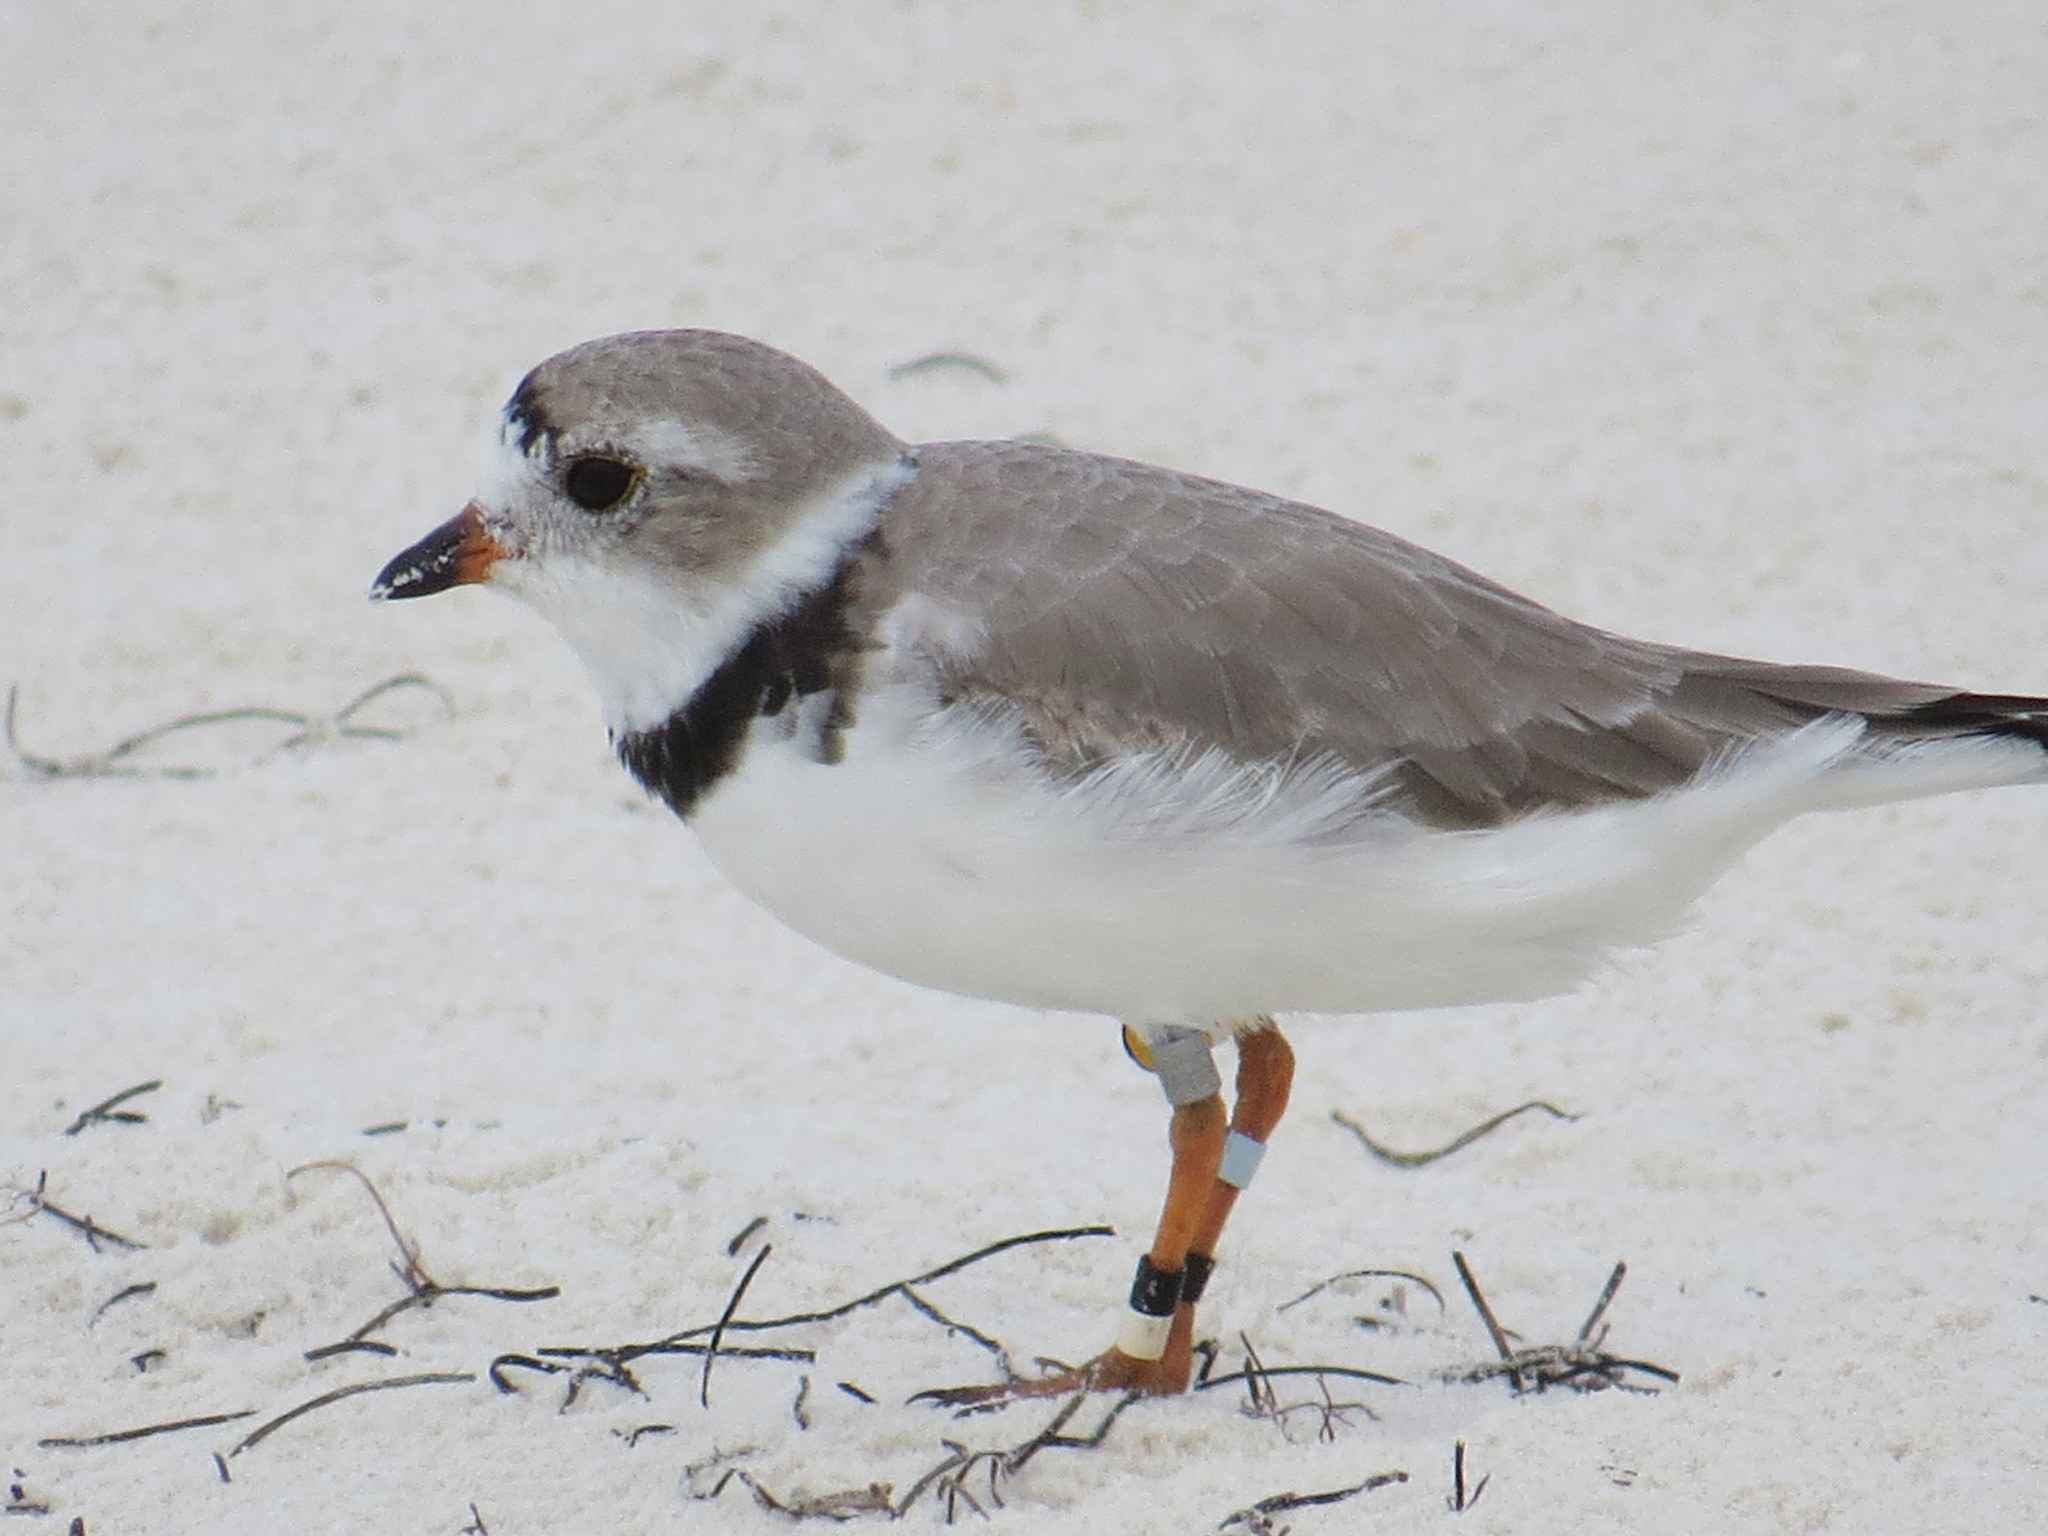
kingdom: Animalia
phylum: Chordata
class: Aves
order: Charadriiformes
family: Charadriidae
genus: Charadrius
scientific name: Charadrius melodus
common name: Piping plover
